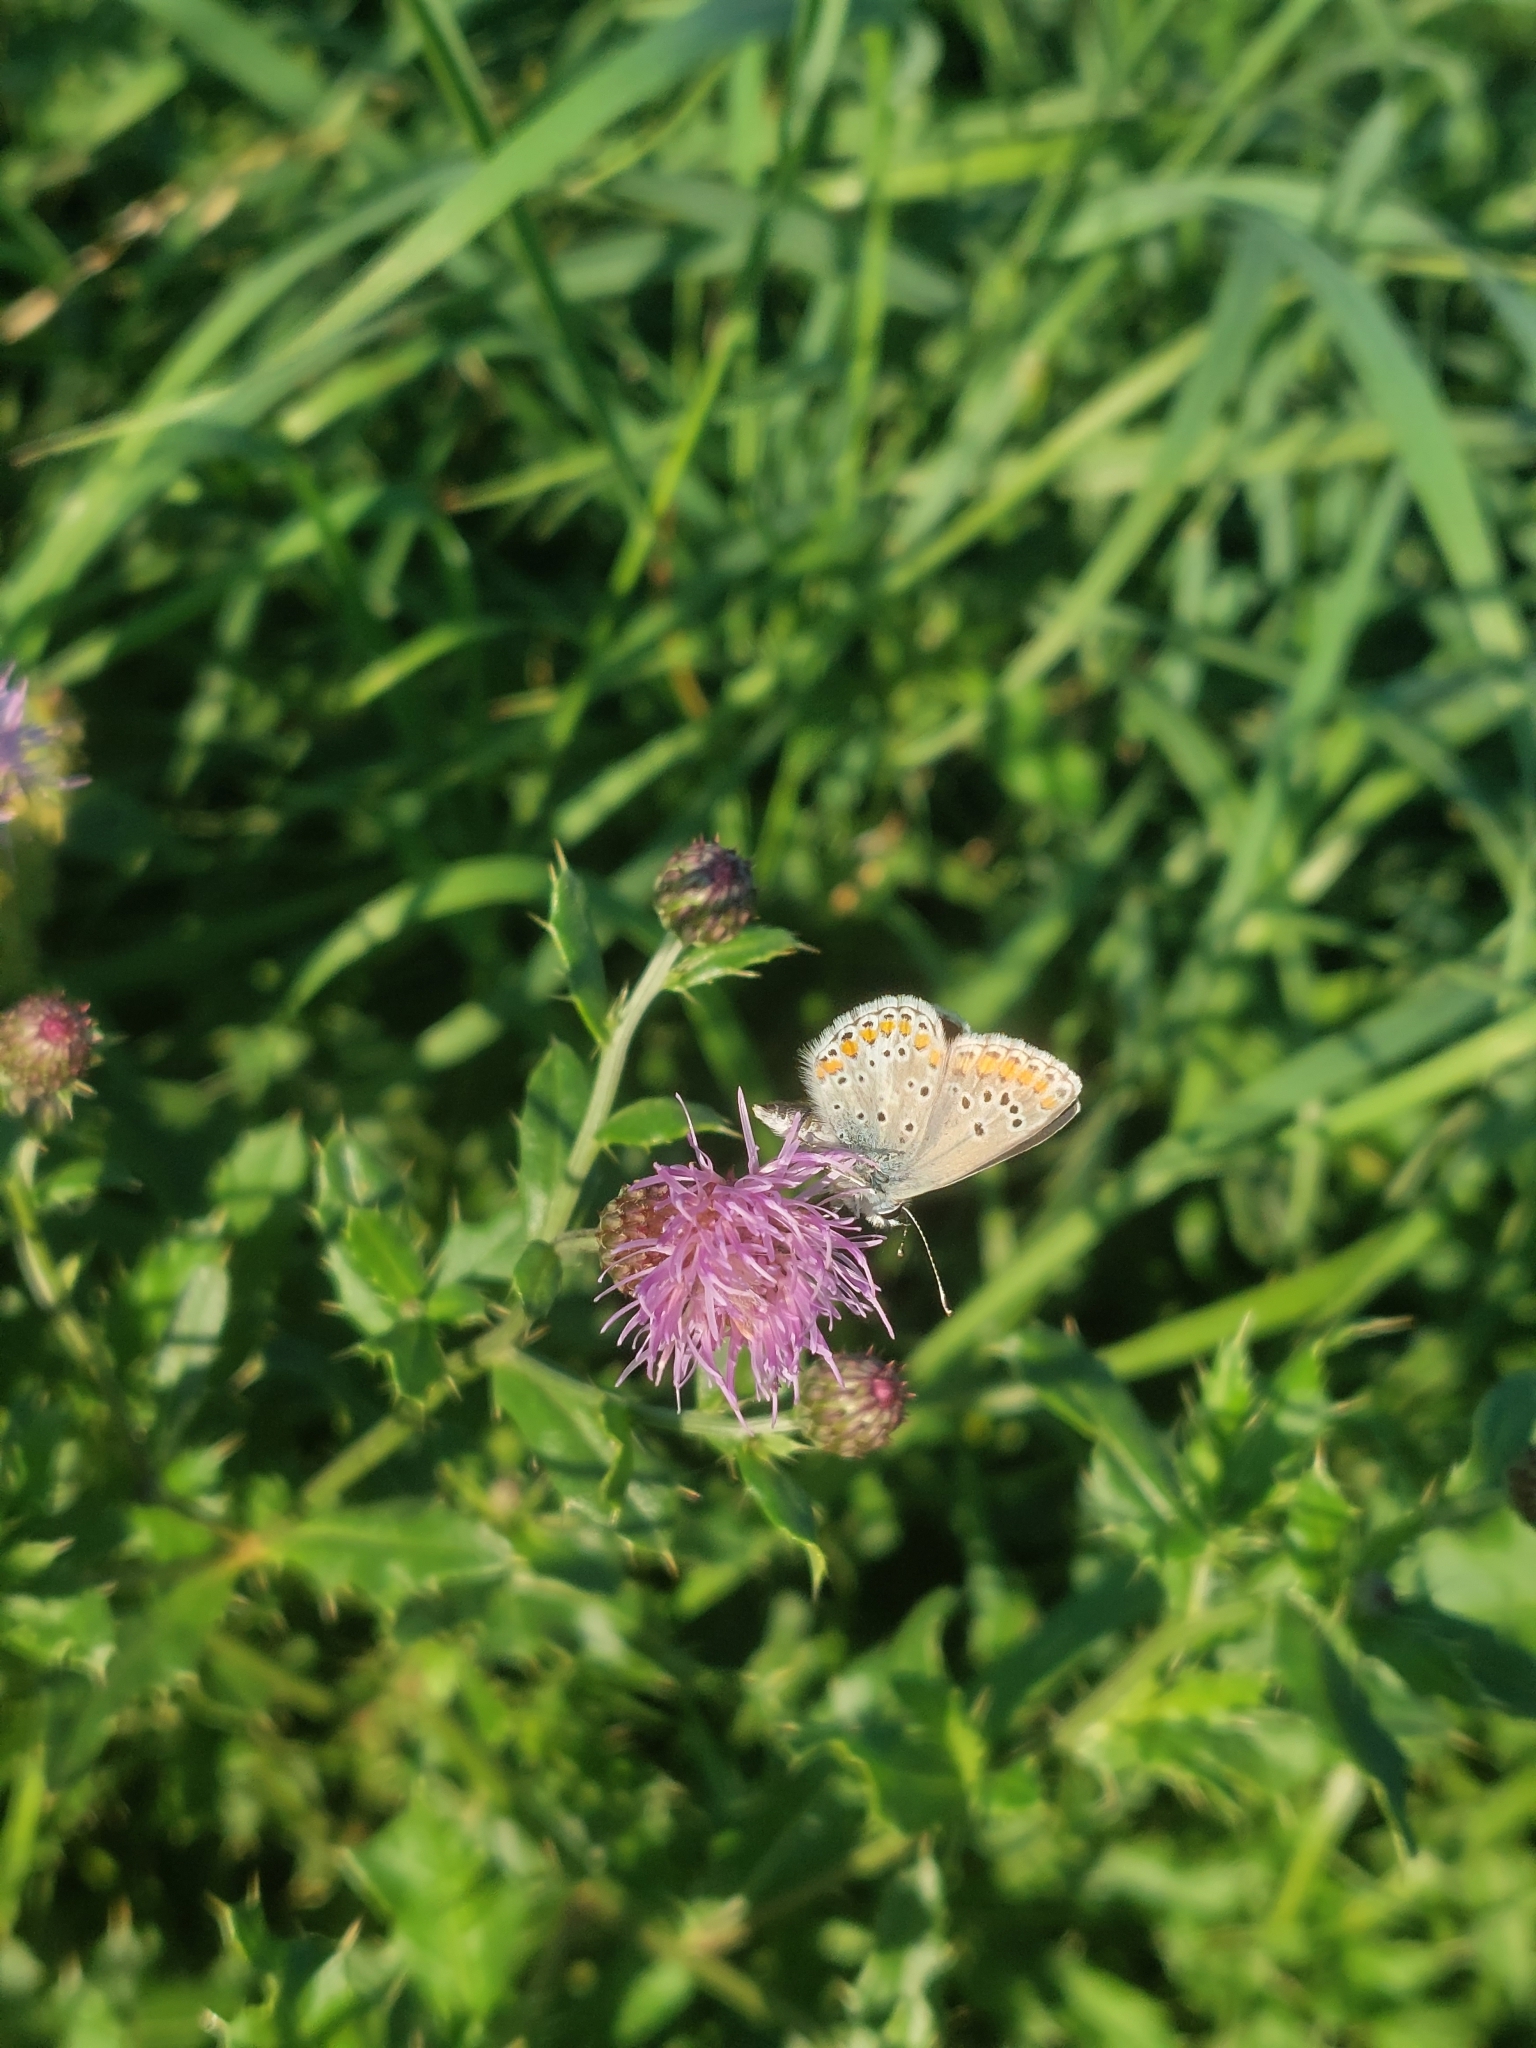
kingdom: Animalia
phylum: Arthropoda
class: Insecta
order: Lepidoptera
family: Lycaenidae
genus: Aricia
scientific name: Aricia agestis
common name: Brown argus
